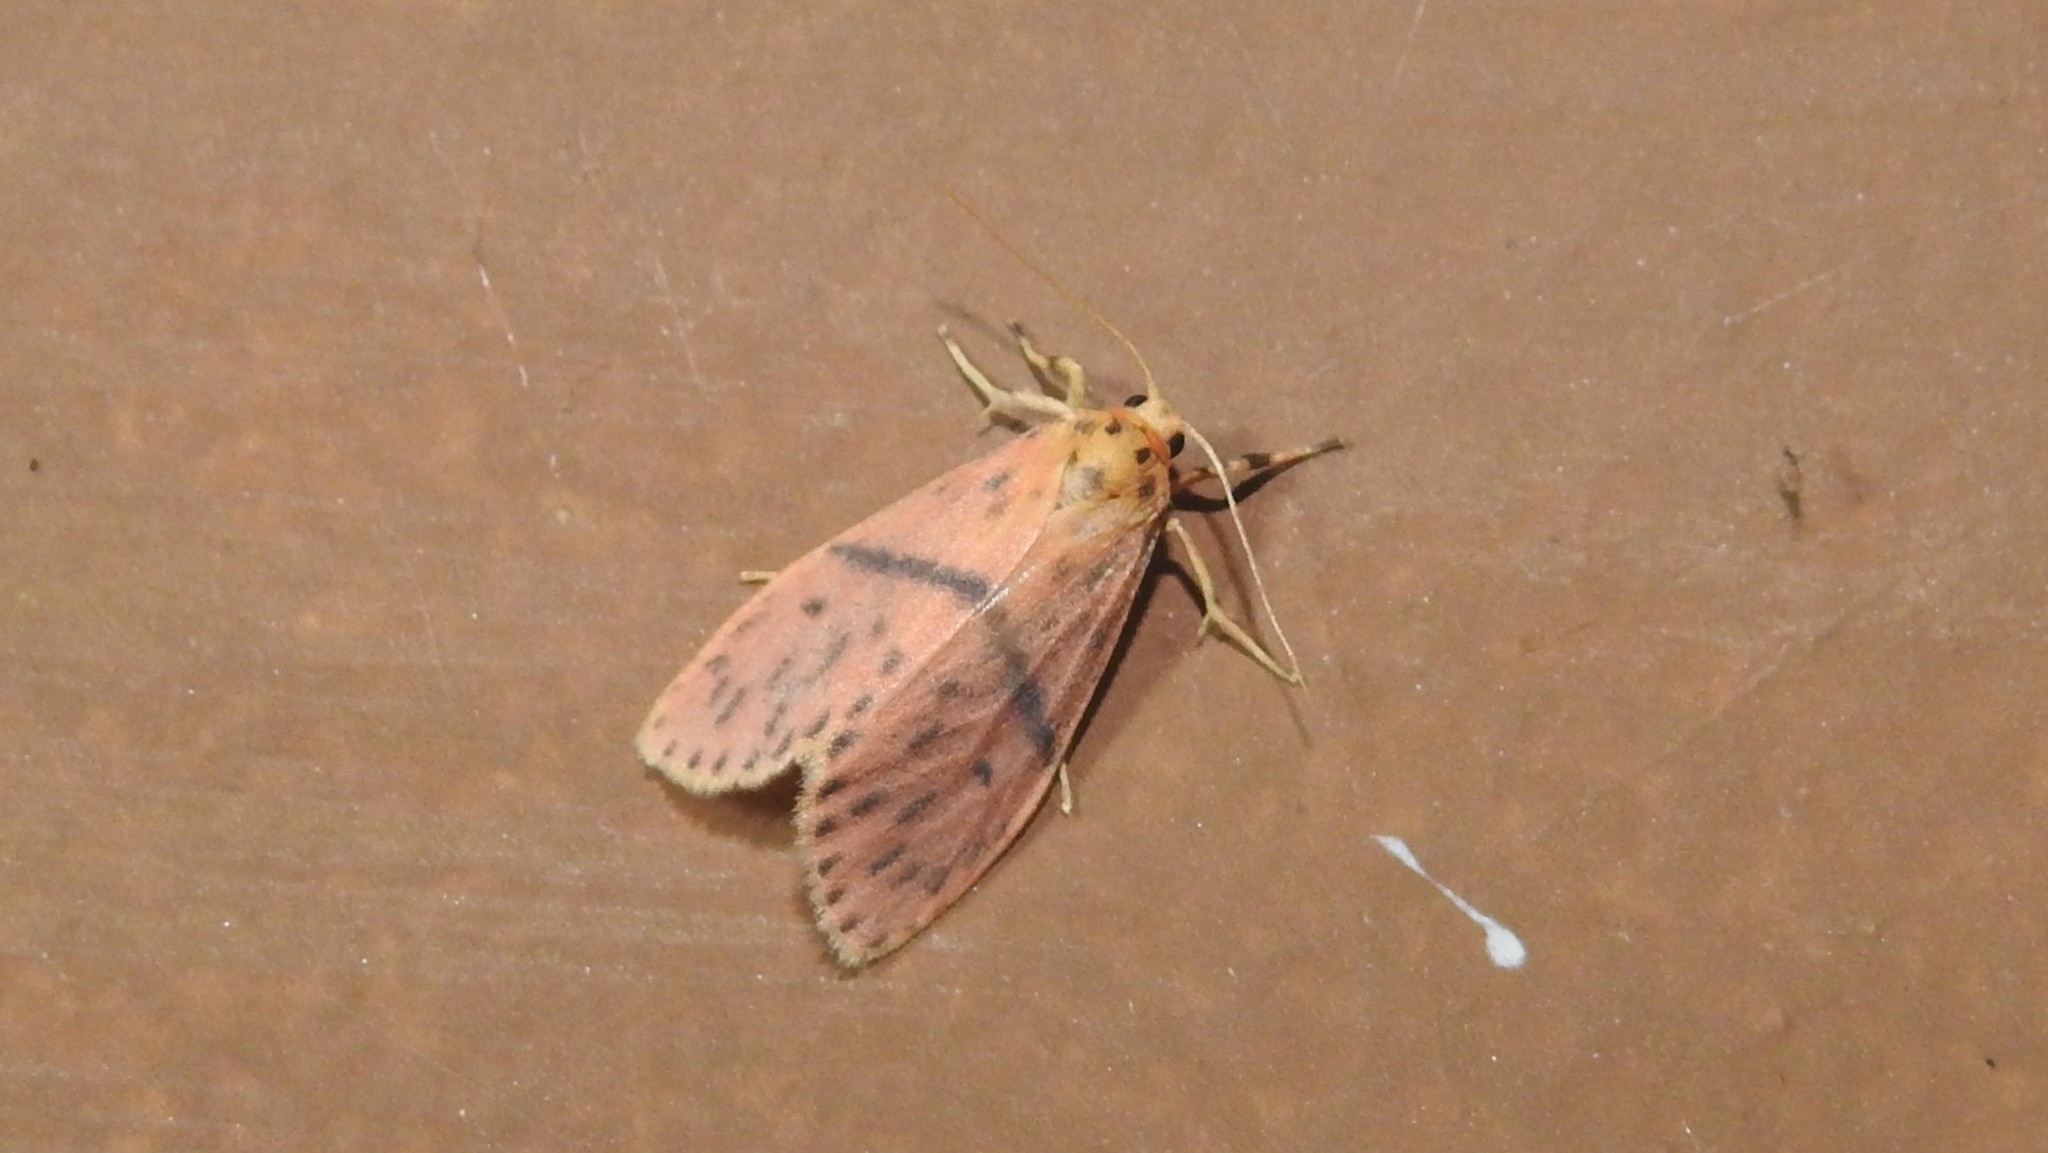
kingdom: Animalia
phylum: Arthropoda
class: Insecta
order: Lepidoptera
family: Erebidae
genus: Arctelene
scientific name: Arctelene arcuata
